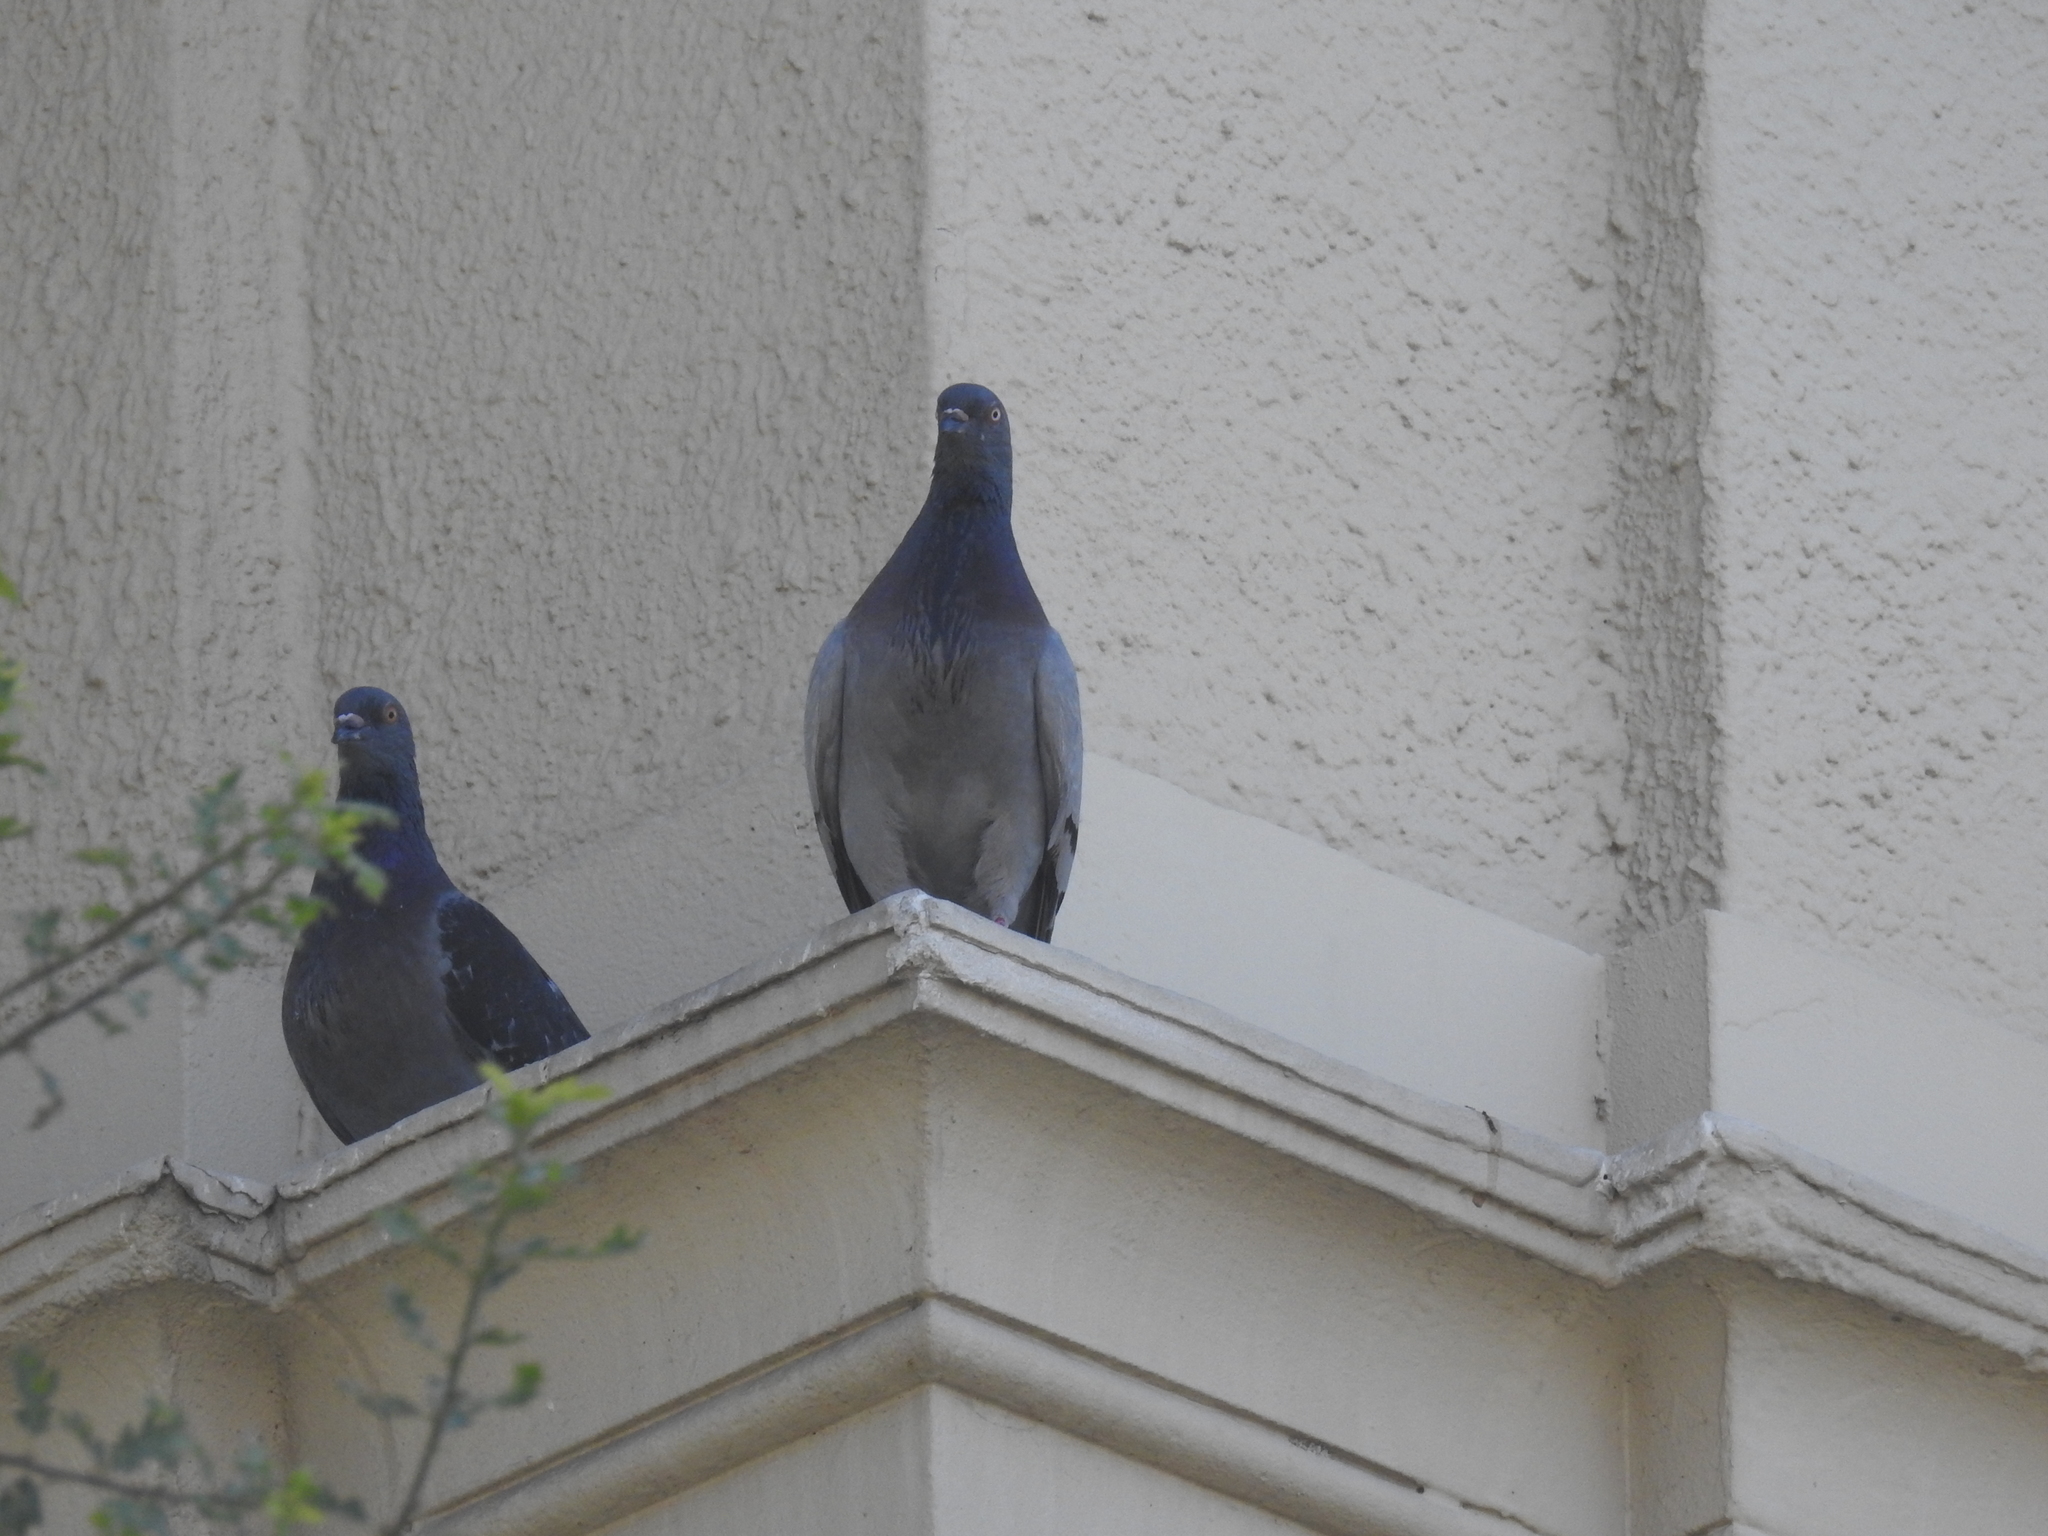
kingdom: Animalia
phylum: Chordata
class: Aves
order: Columbiformes
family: Columbidae
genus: Columba
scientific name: Columba livia
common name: Rock pigeon
